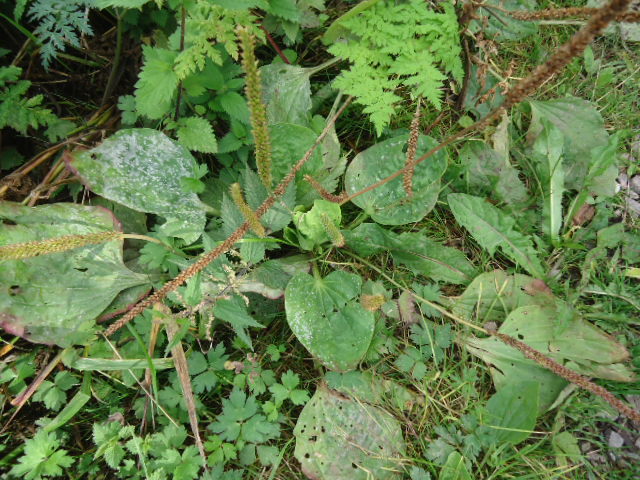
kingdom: Plantae
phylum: Tracheophyta
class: Magnoliopsida
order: Lamiales
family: Plantaginaceae
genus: Plantago
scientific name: Plantago major
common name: Common plantain
